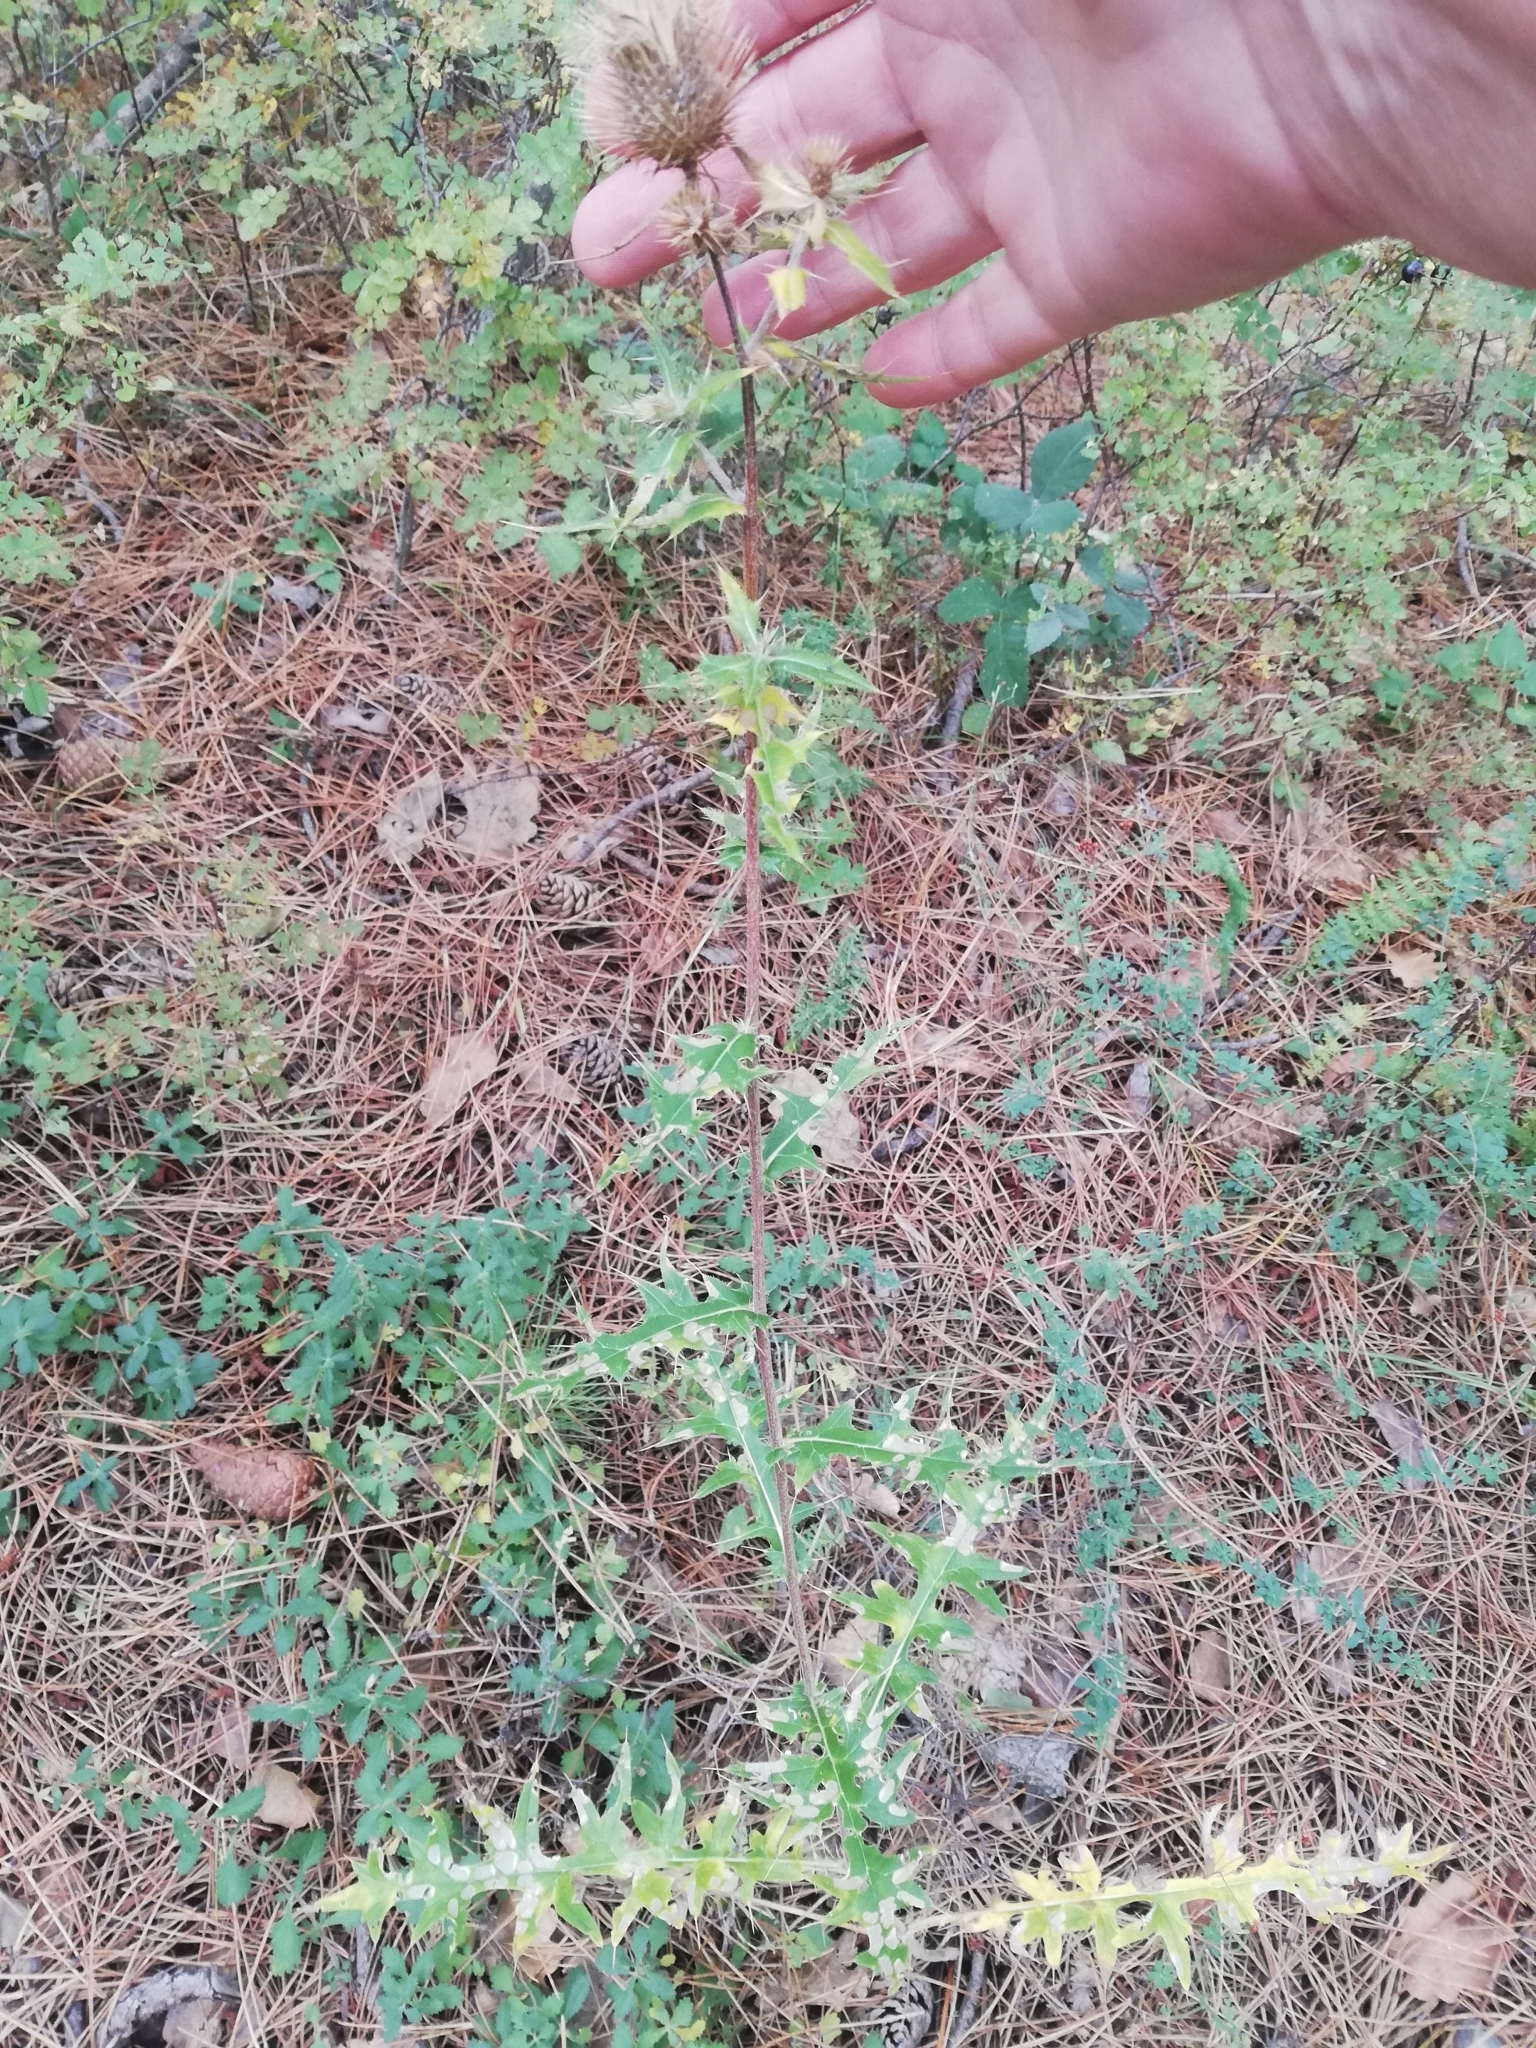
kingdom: Plantae
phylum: Tracheophyta
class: Magnoliopsida
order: Asterales
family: Asteraceae
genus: Cirsium
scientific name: Cirsium vulgare
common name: Bull thistle
